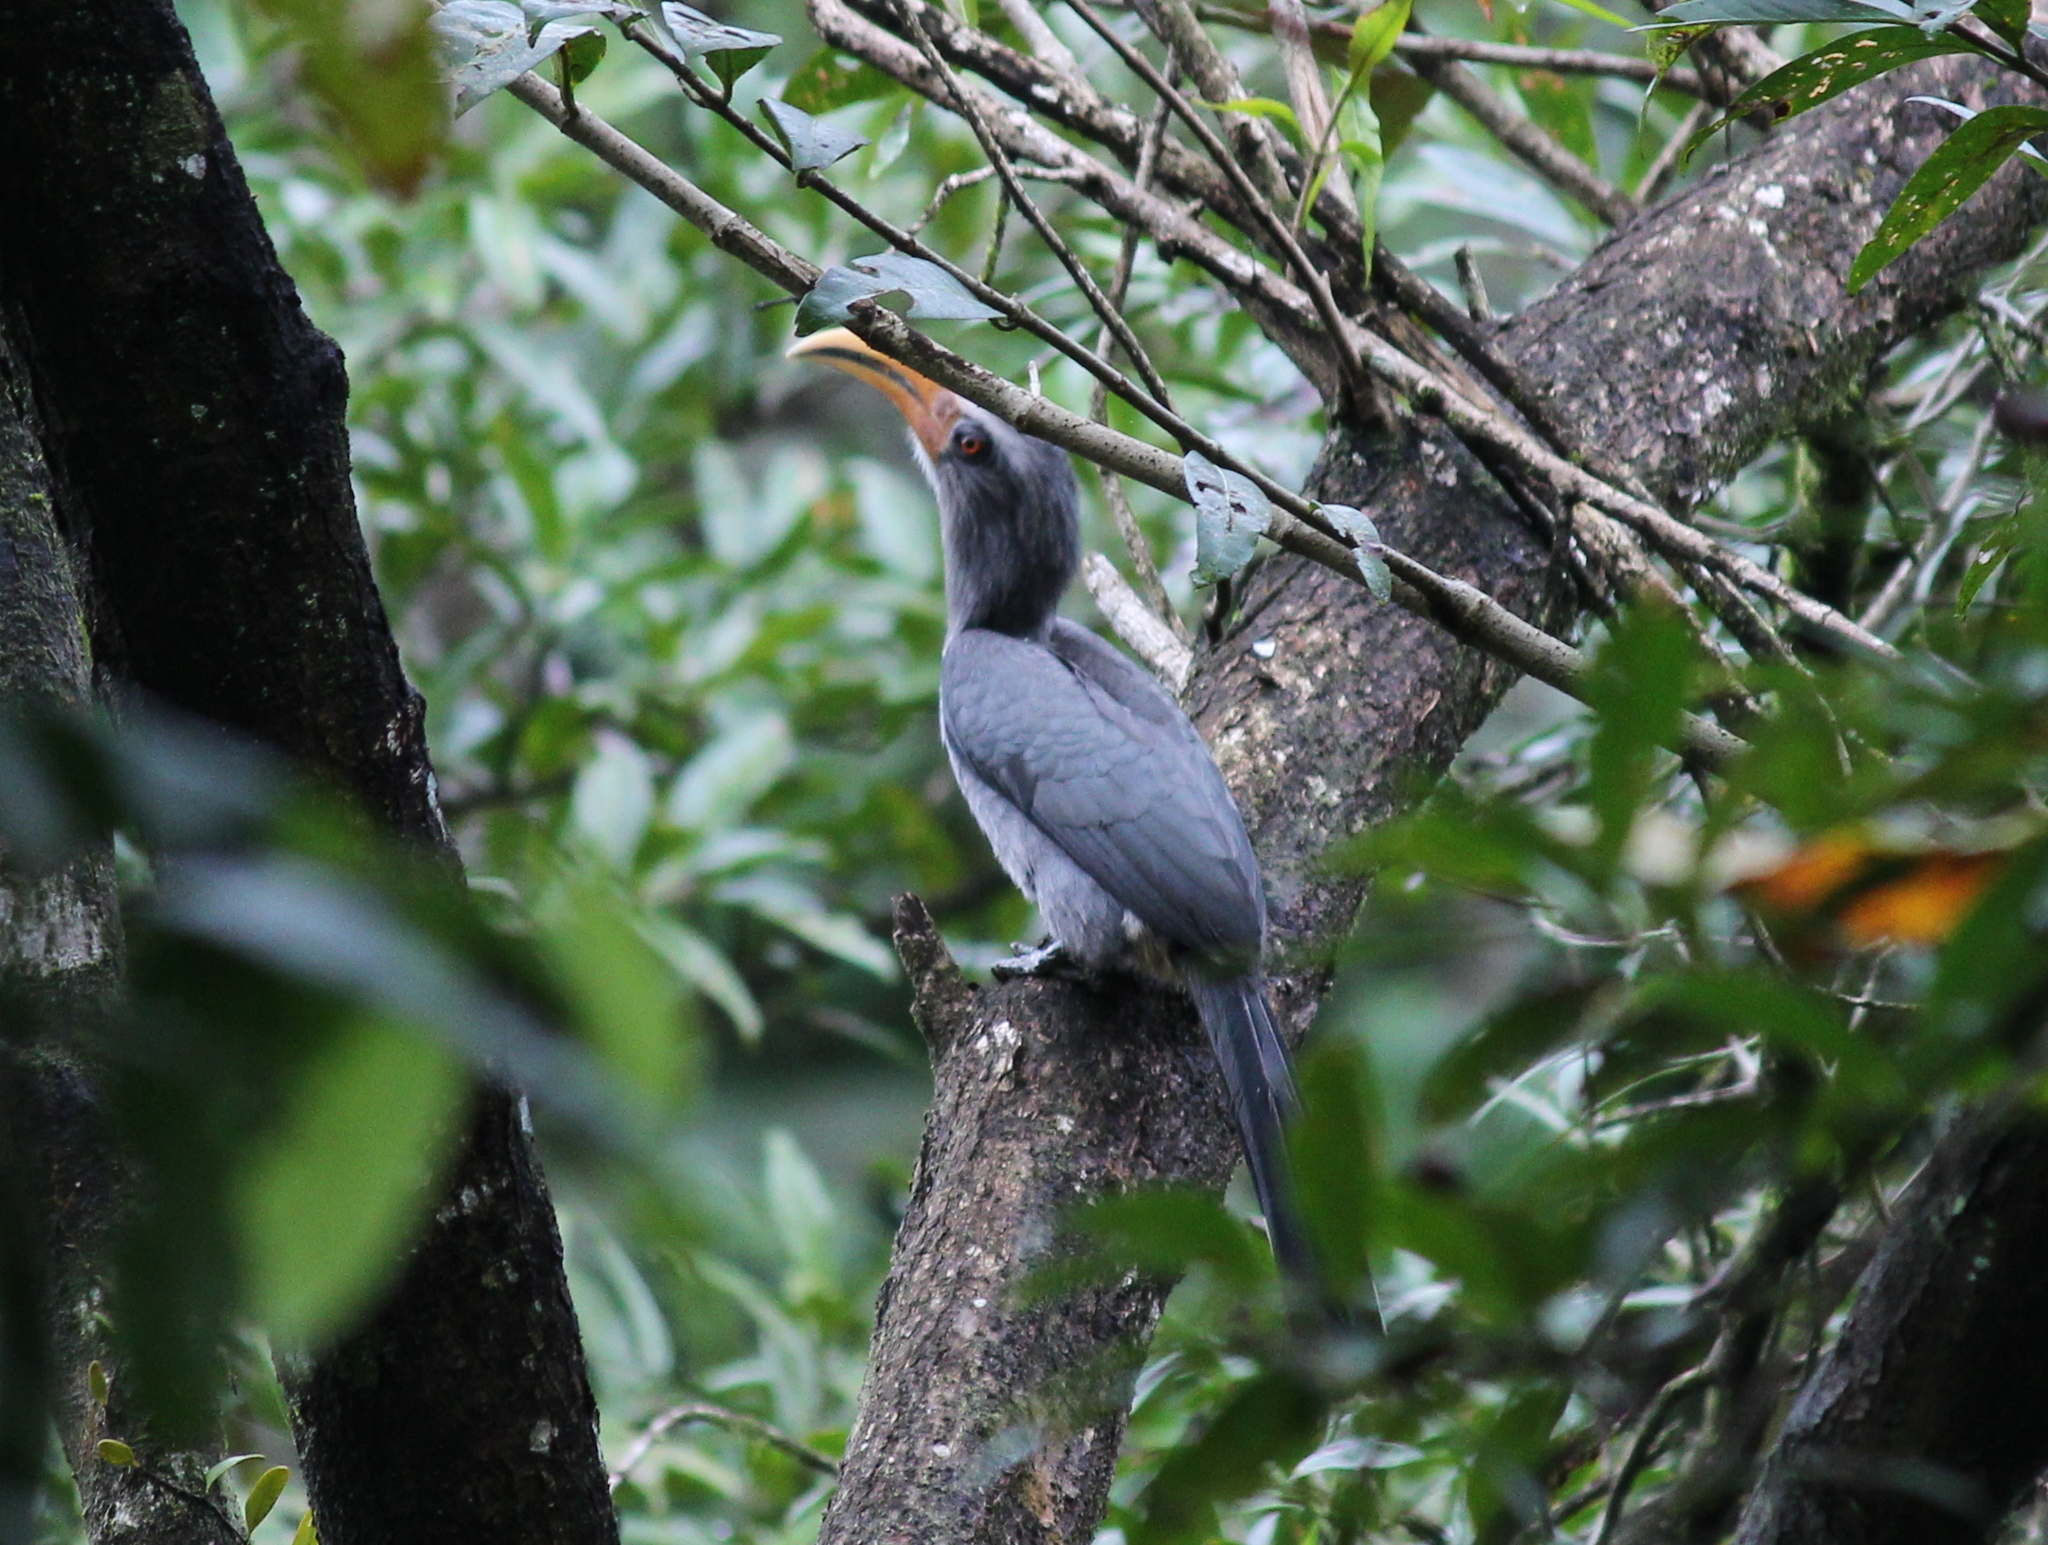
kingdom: Animalia
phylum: Chordata
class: Aves
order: Bucerotiformes
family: Bucerotidae
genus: Ocyceros
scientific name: Ocyceros griseus
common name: Malabar grey hornbill
